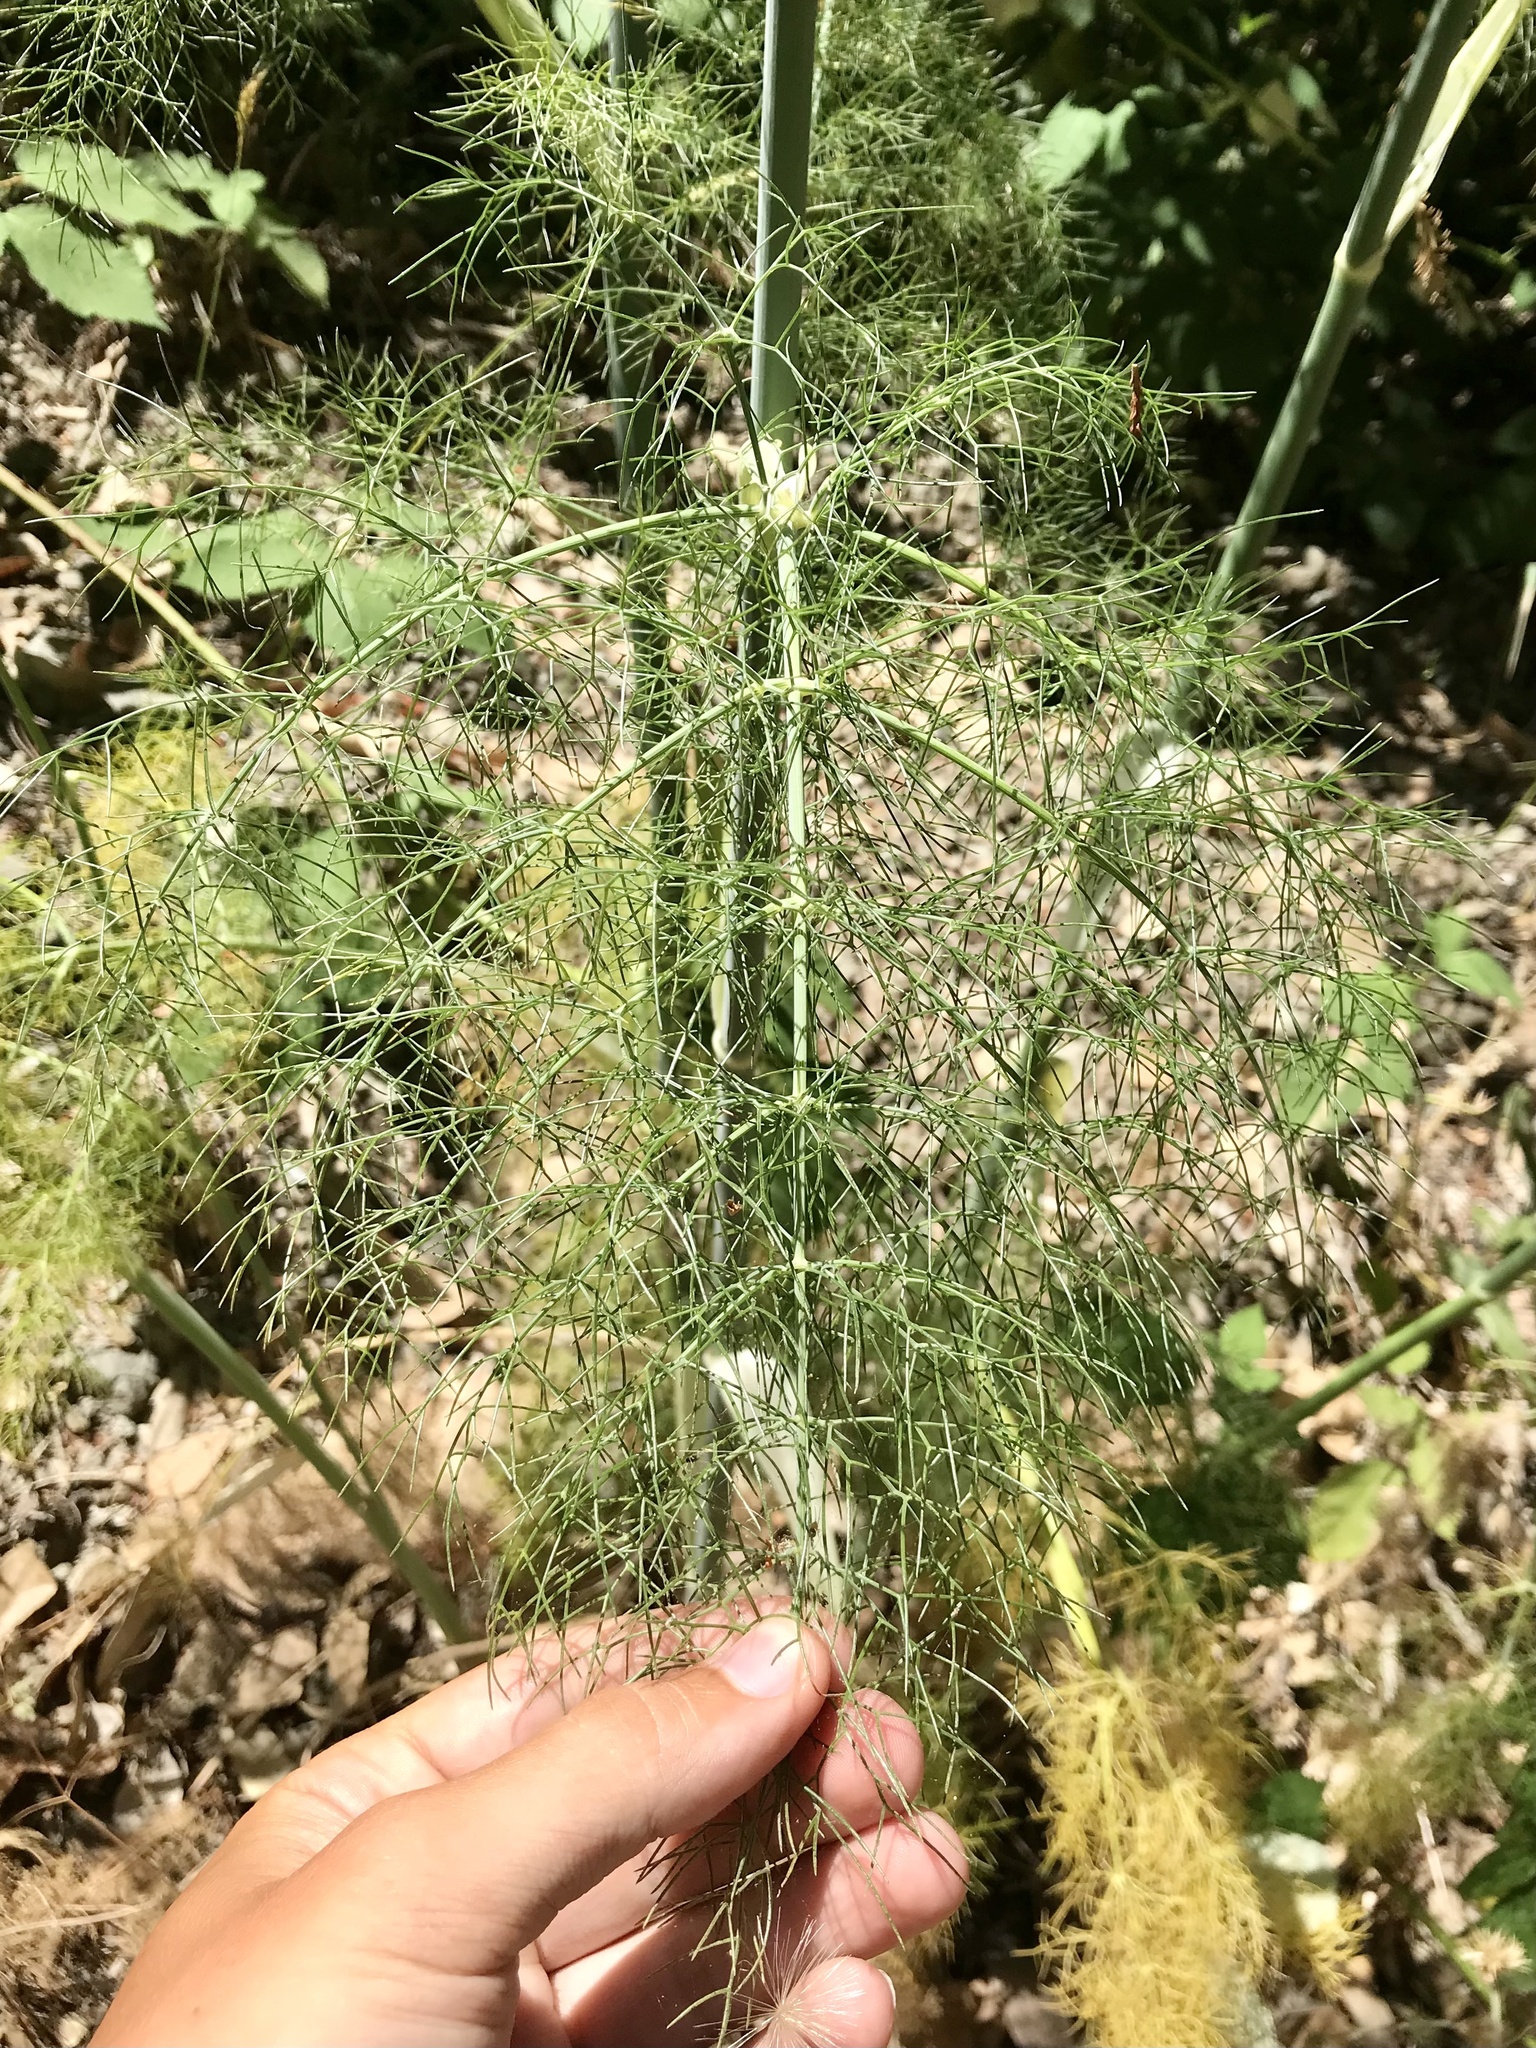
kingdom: Plantae
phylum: Tracheophyta
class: Magnoliopsida
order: Apiales
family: Apiaceae
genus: Foeniculum
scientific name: Foeniculum vulgare
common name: Fennel
